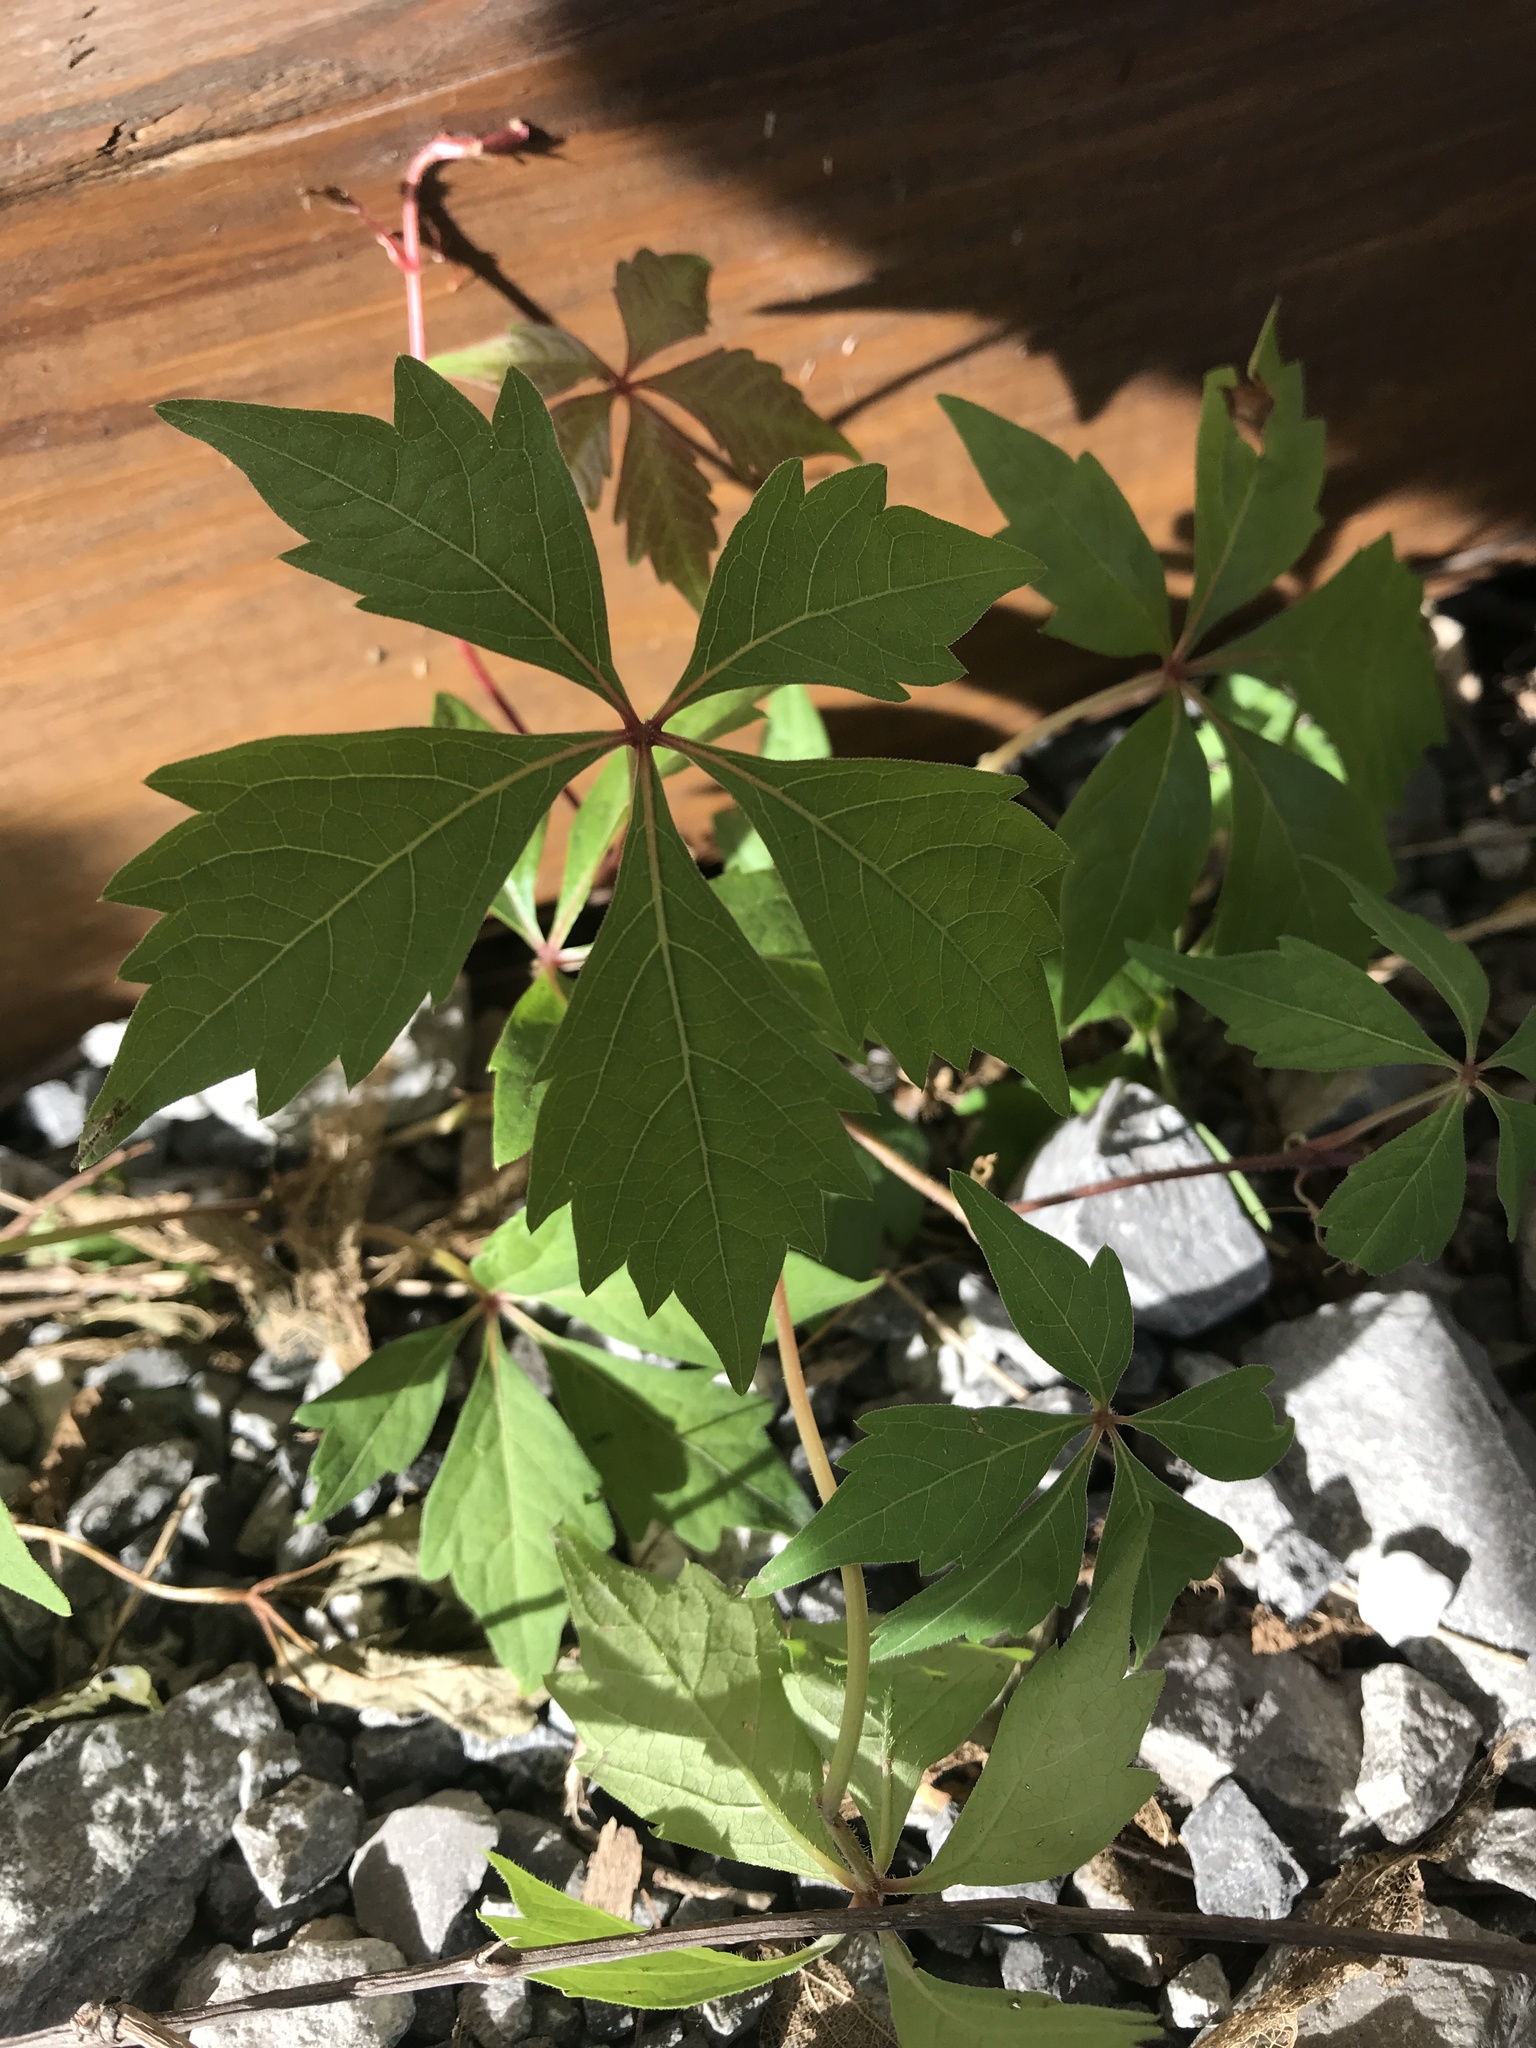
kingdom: Plantae
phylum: Tracheophyta
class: Magnoliopsida
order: Vitales
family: Vitaceae
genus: Parthenocissus
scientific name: Parthenocissus quinquefolia
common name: Virginia-creeper
